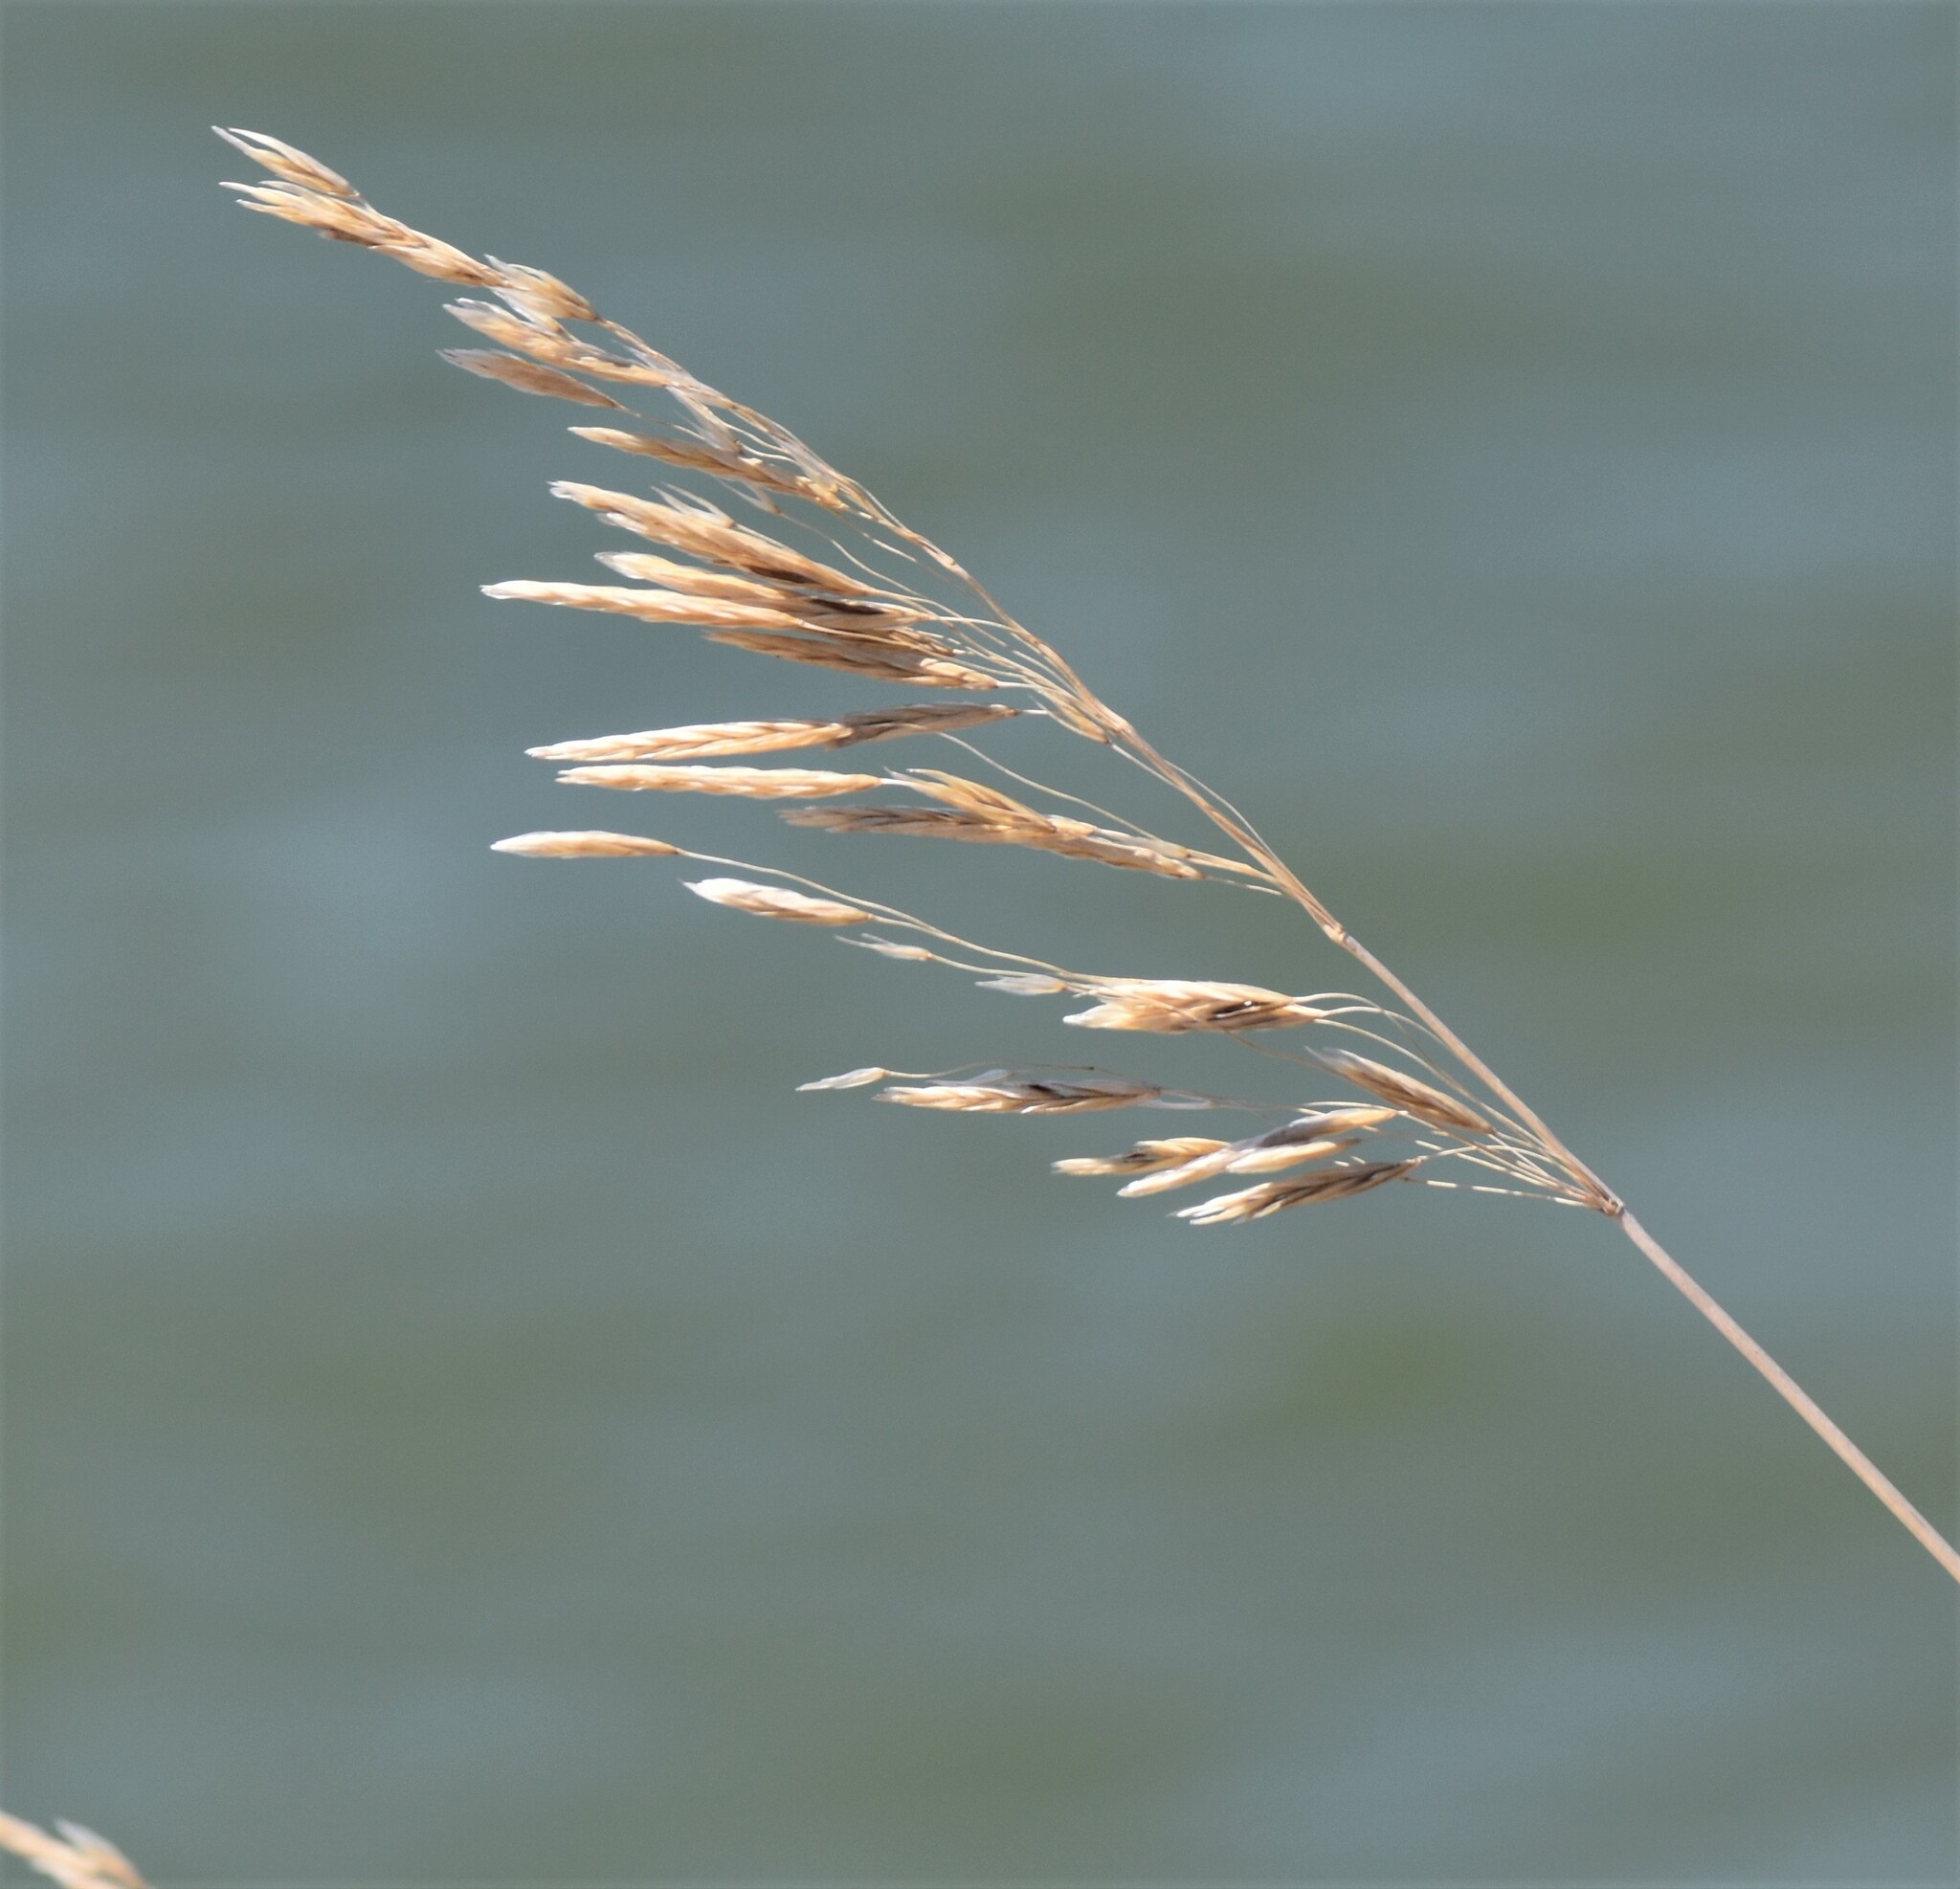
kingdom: Plantae
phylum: Tracheophyta
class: Liliopsida
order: Poales
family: Poaceae
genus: Bromus
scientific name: Bromus inermis
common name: Smooth brome
